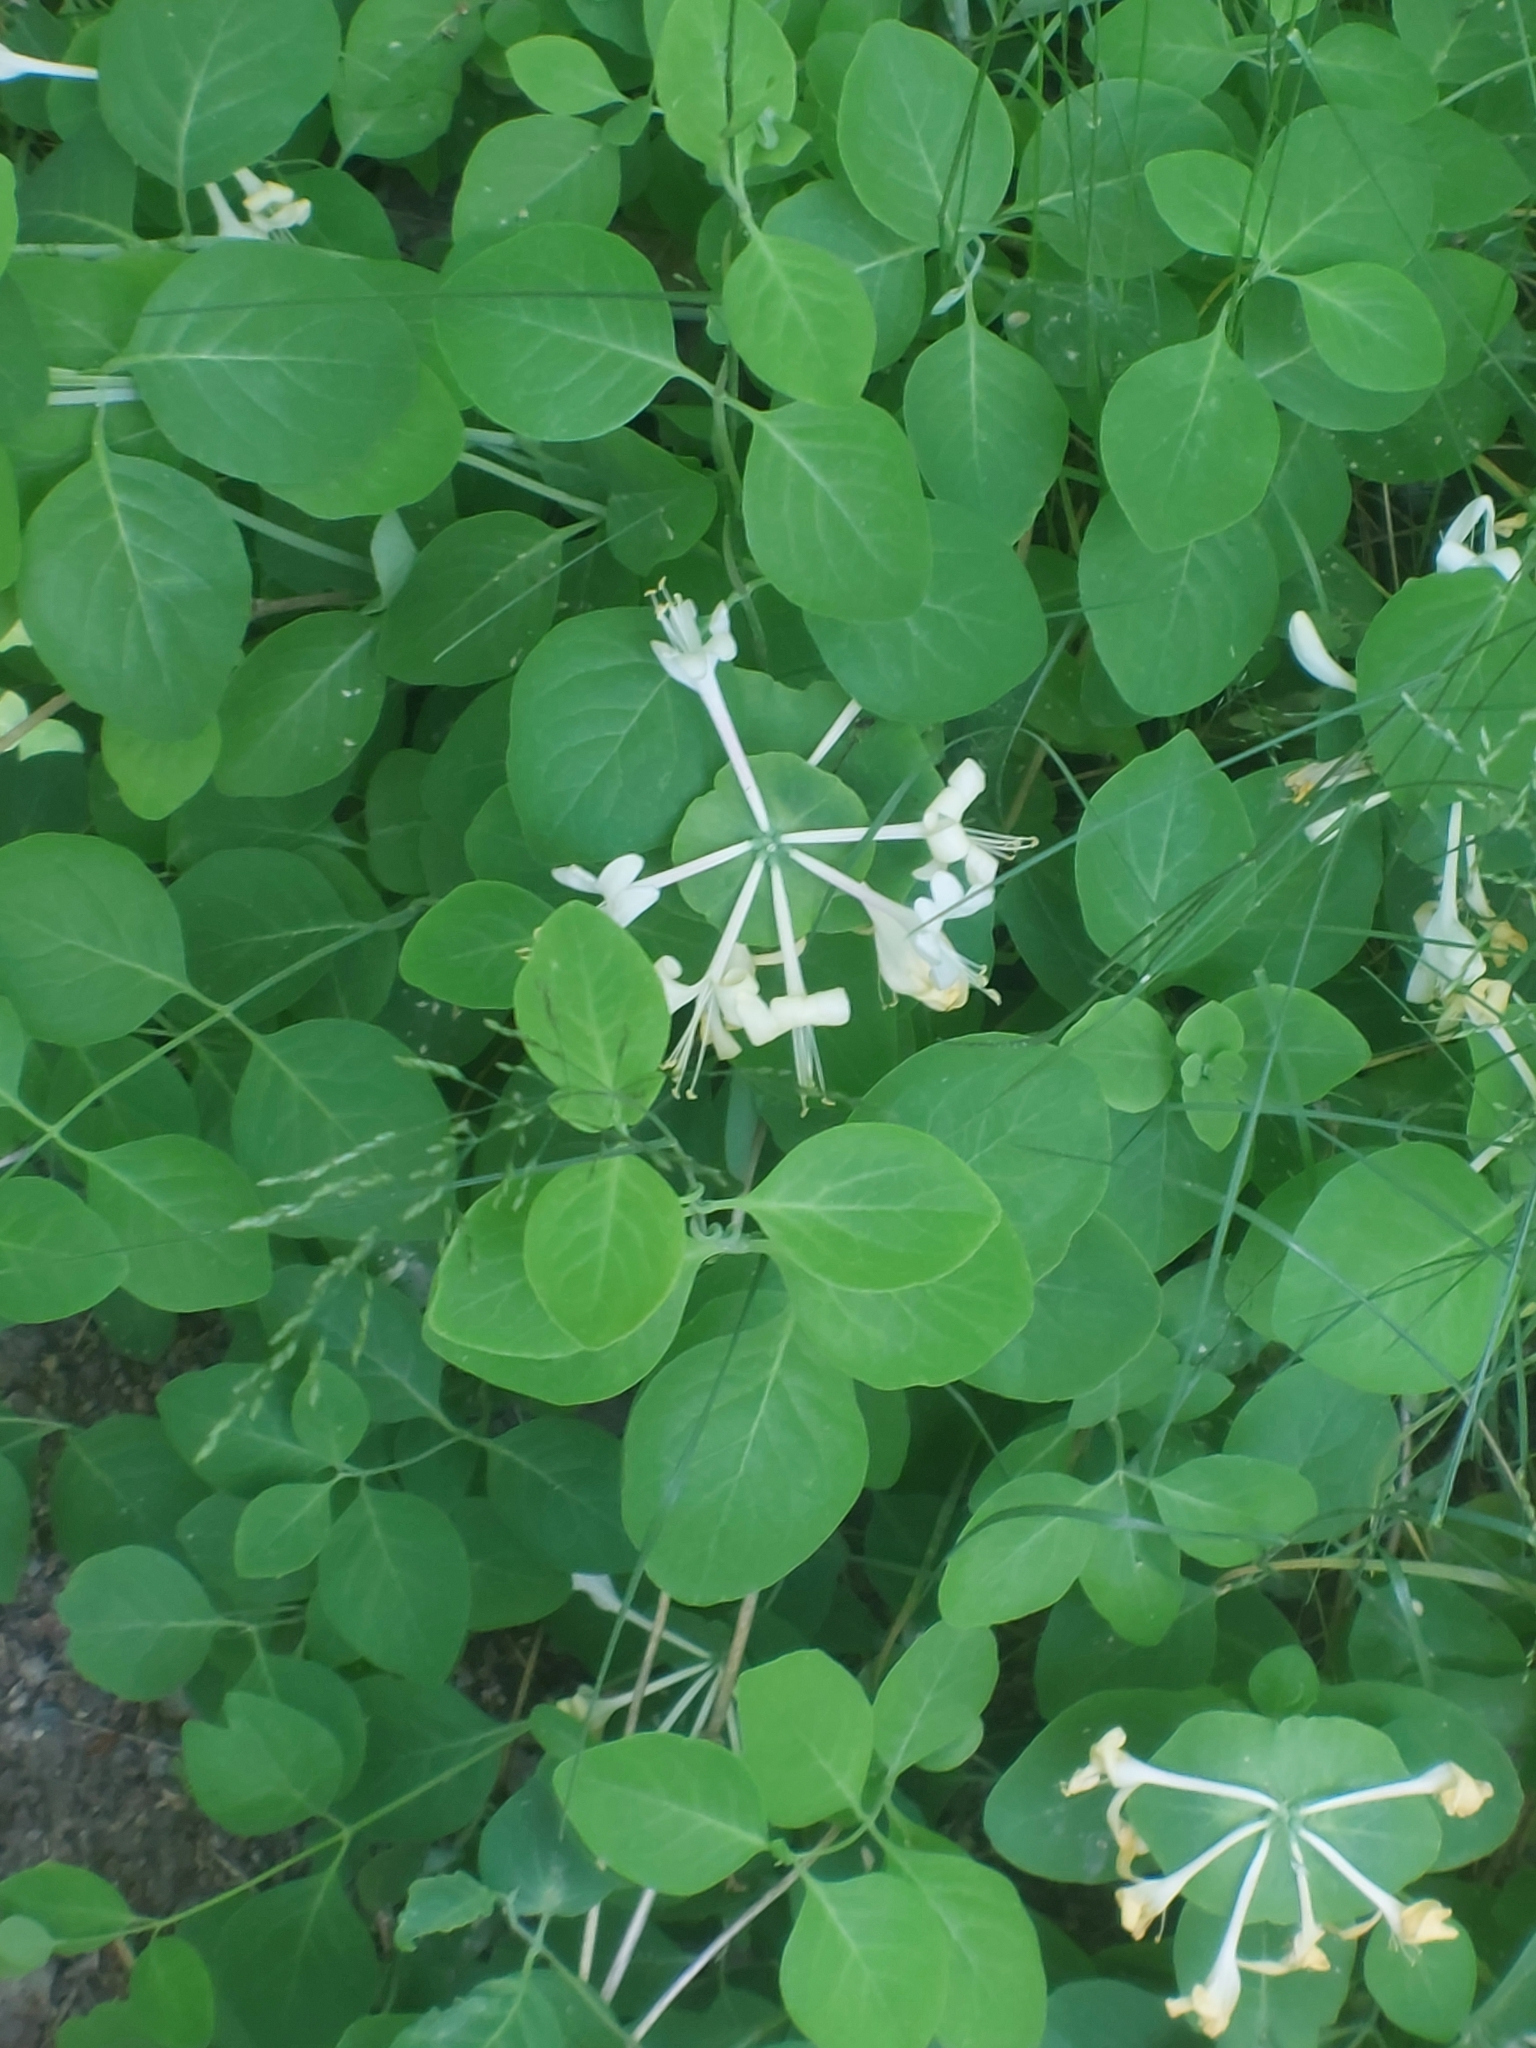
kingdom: Plantae
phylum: Tracheophyta
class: Magnoliopsida
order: Dipsacales
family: Caprifoliaceae
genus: Lonicera
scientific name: Lonicera caprifolium
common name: Perfoliate honeysuckle
